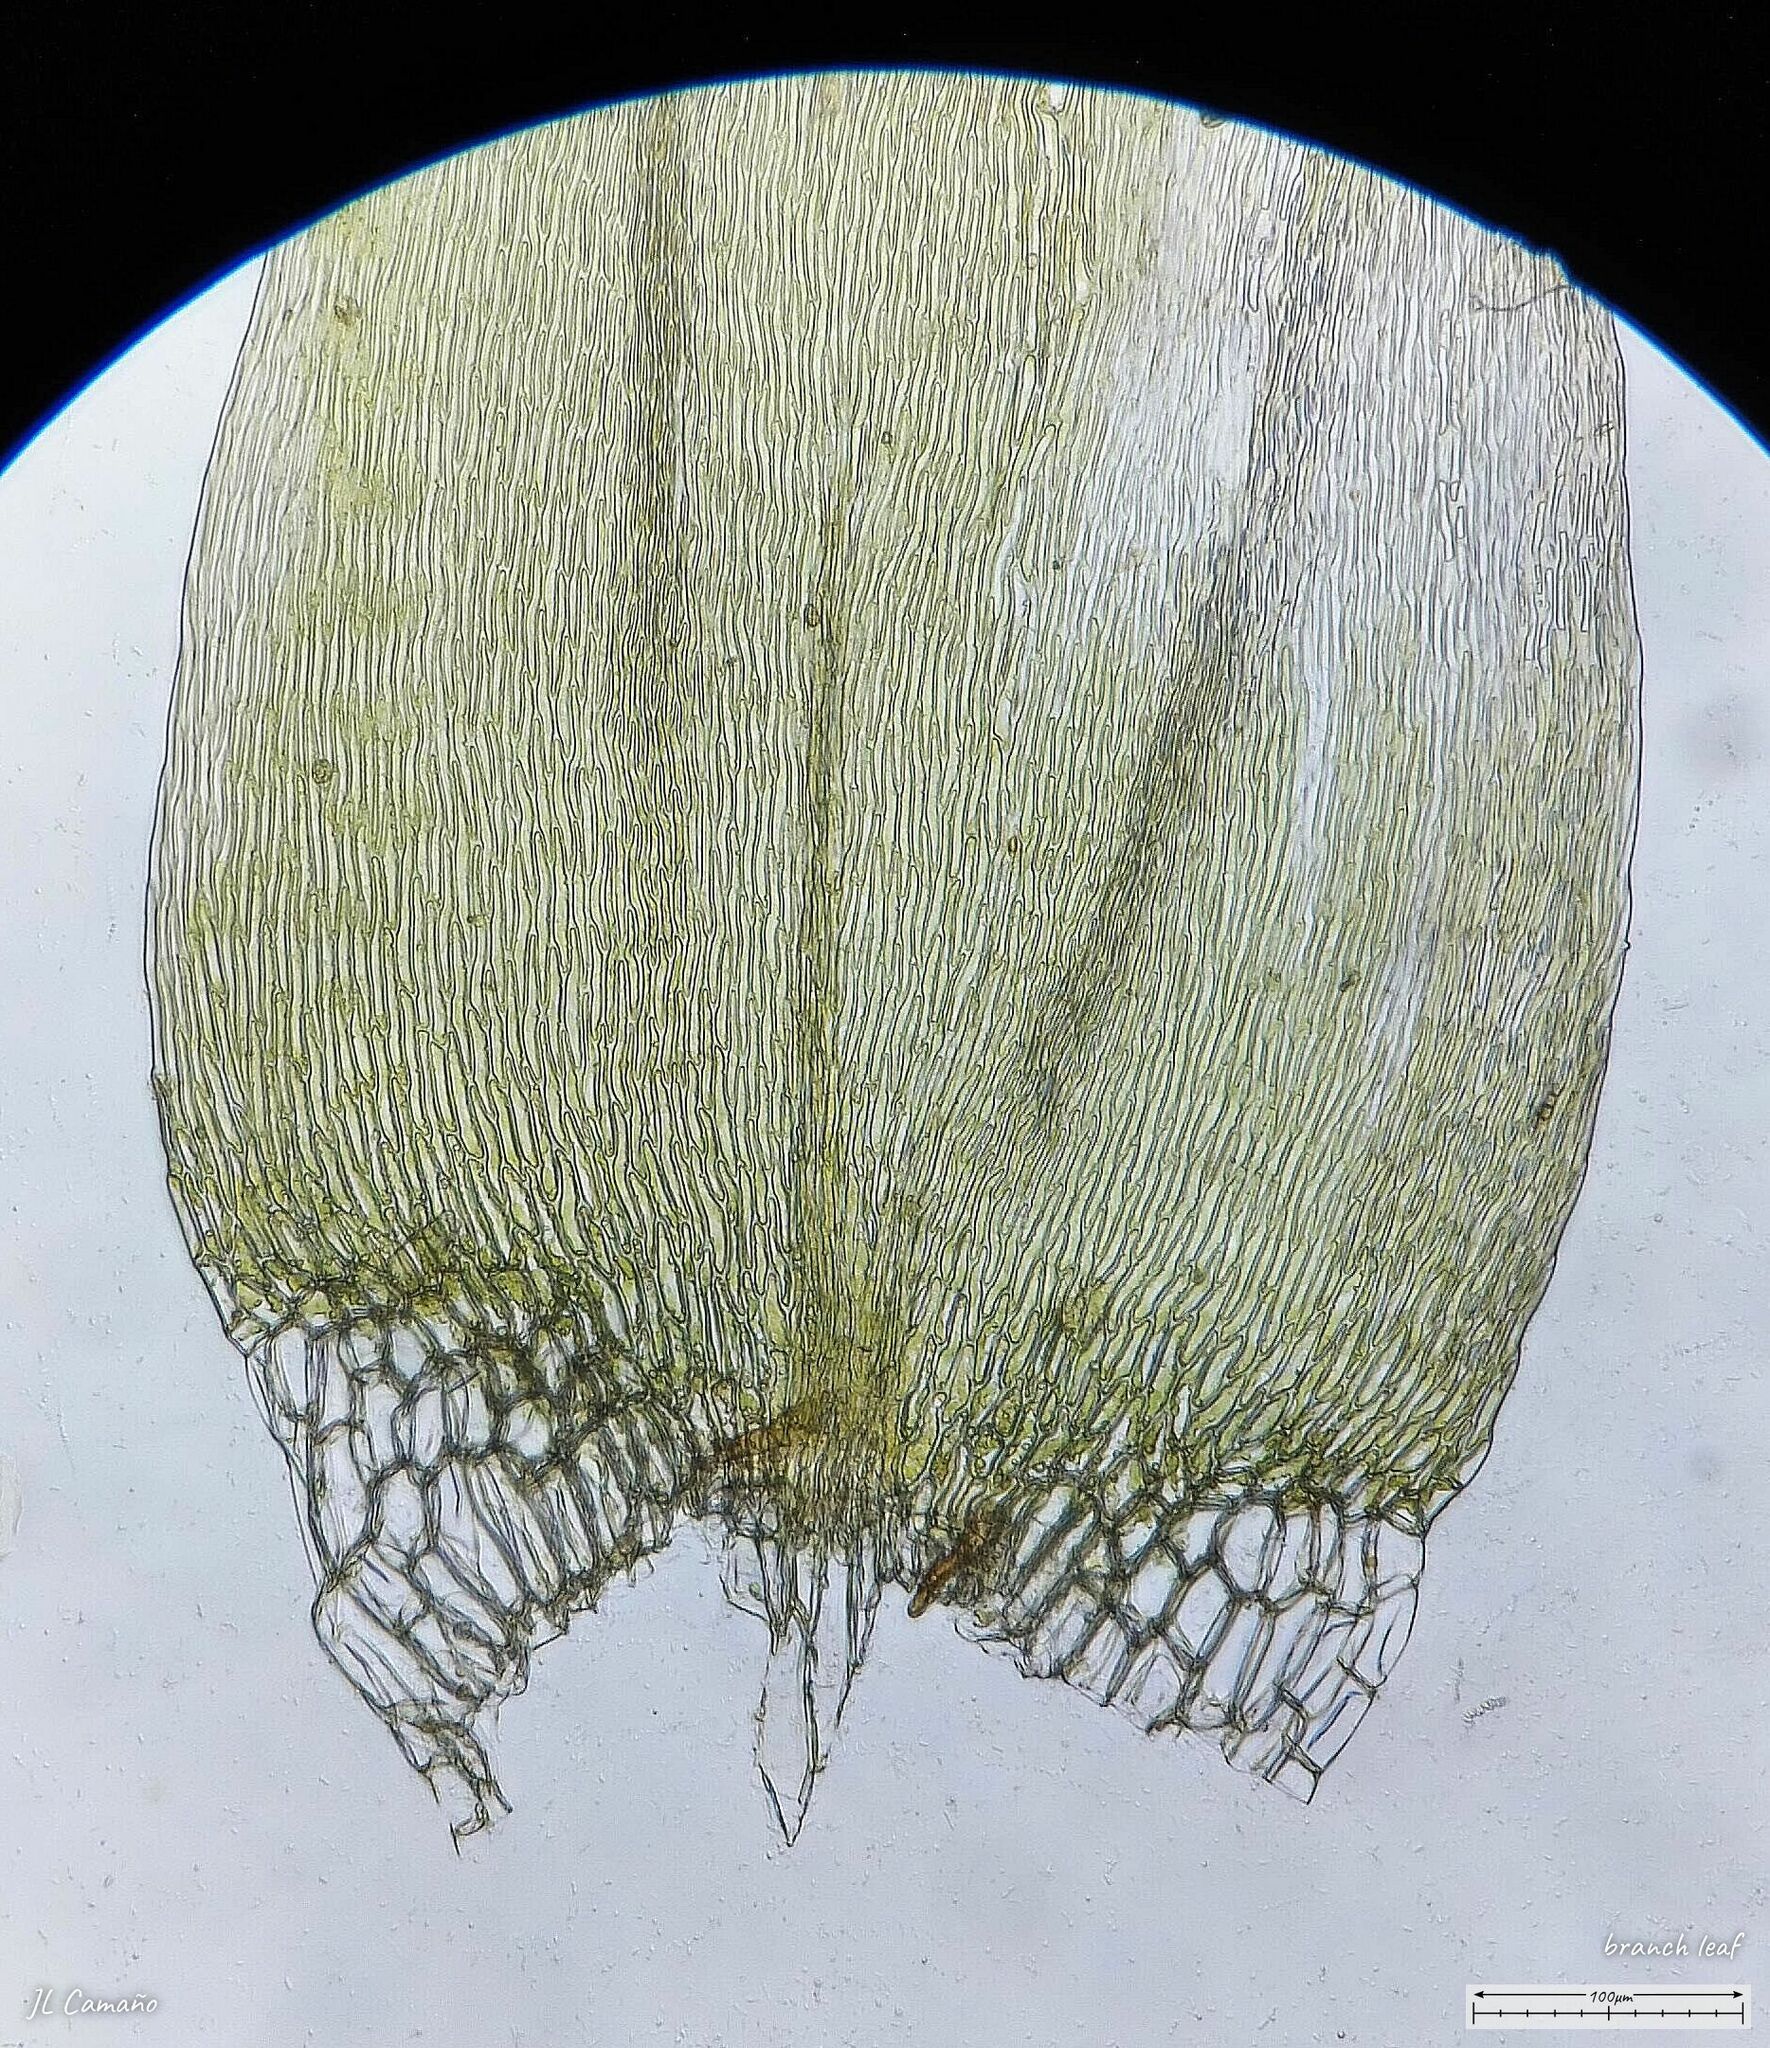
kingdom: Plantae
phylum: Bryophyta
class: Bryopsida
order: Hypnales
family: Pylaisiaceae
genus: Calliergonella
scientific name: Calliergonella cuspidata
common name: Common large wetland moss
